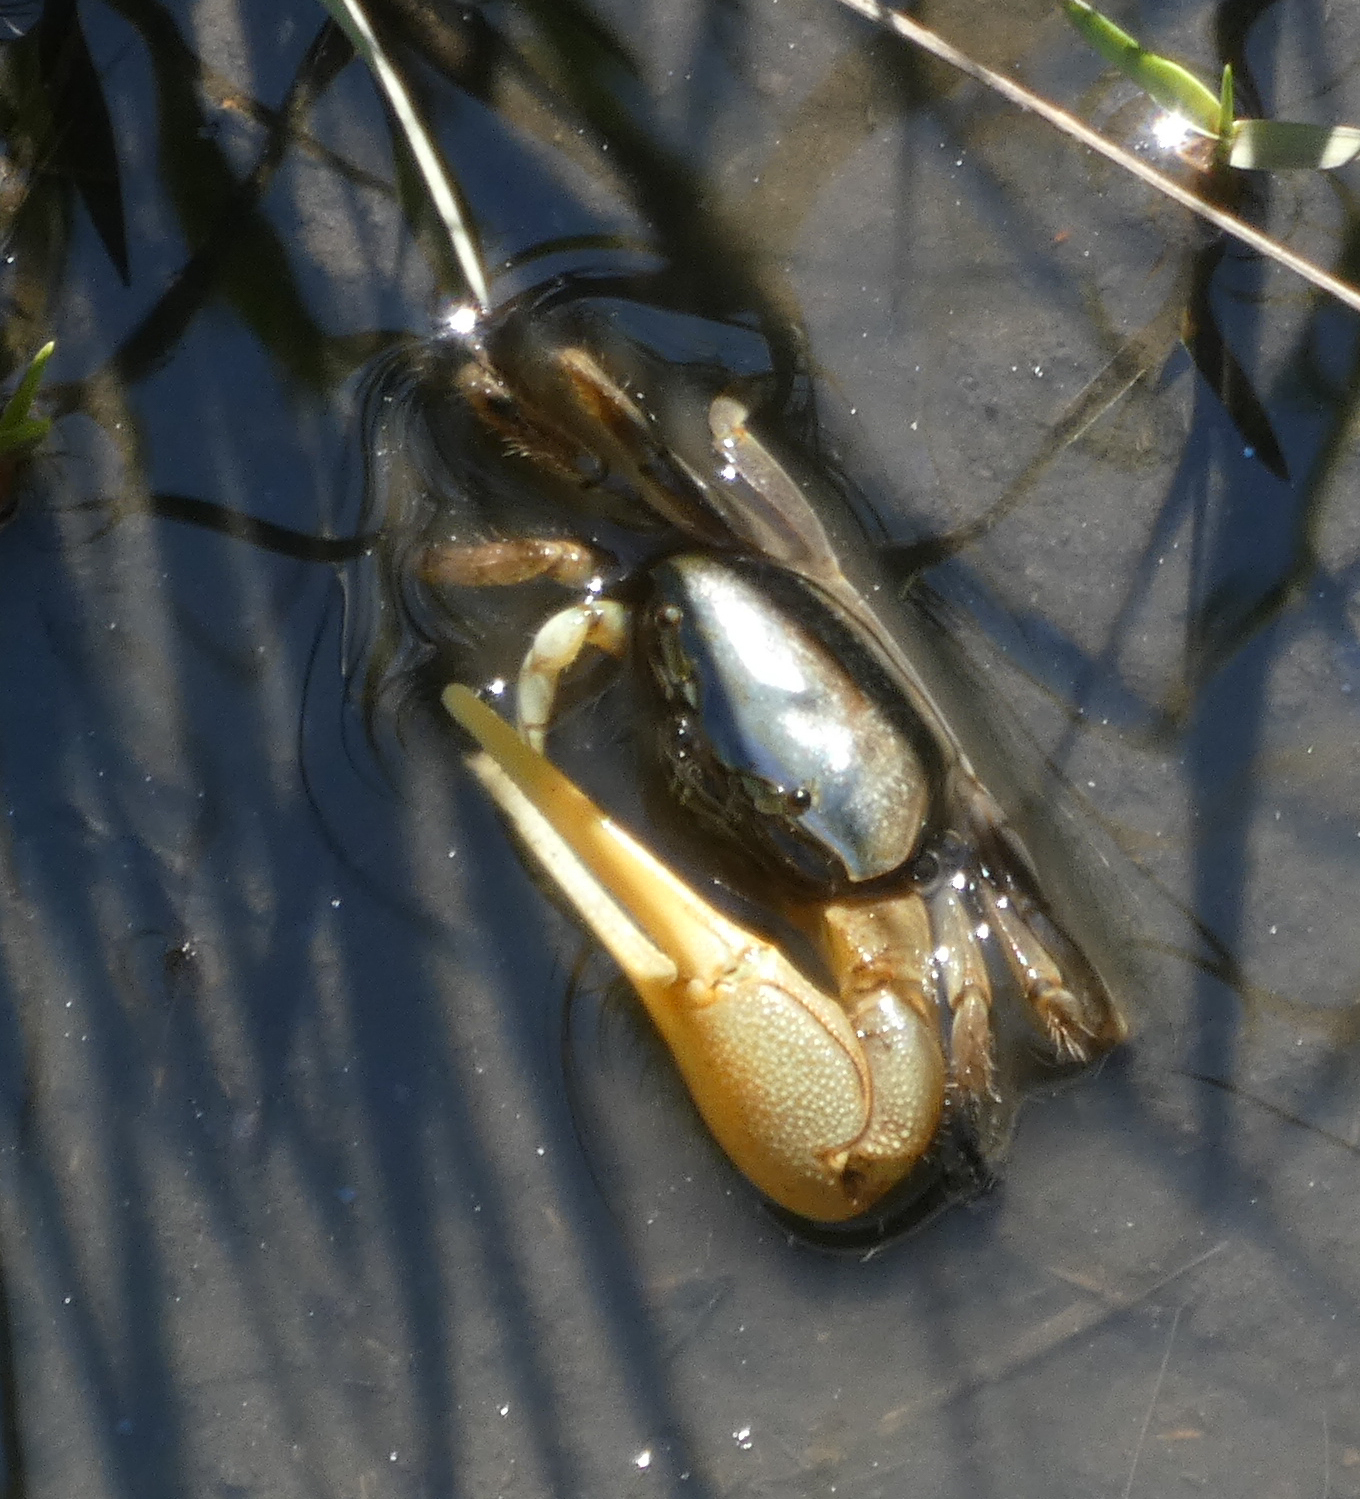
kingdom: Animalia
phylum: Arthropoda
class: Malacostraca
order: Decapoda
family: Ocypodidae
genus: Minuca
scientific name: Minuca pugnax
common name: Mud fiddler crab
